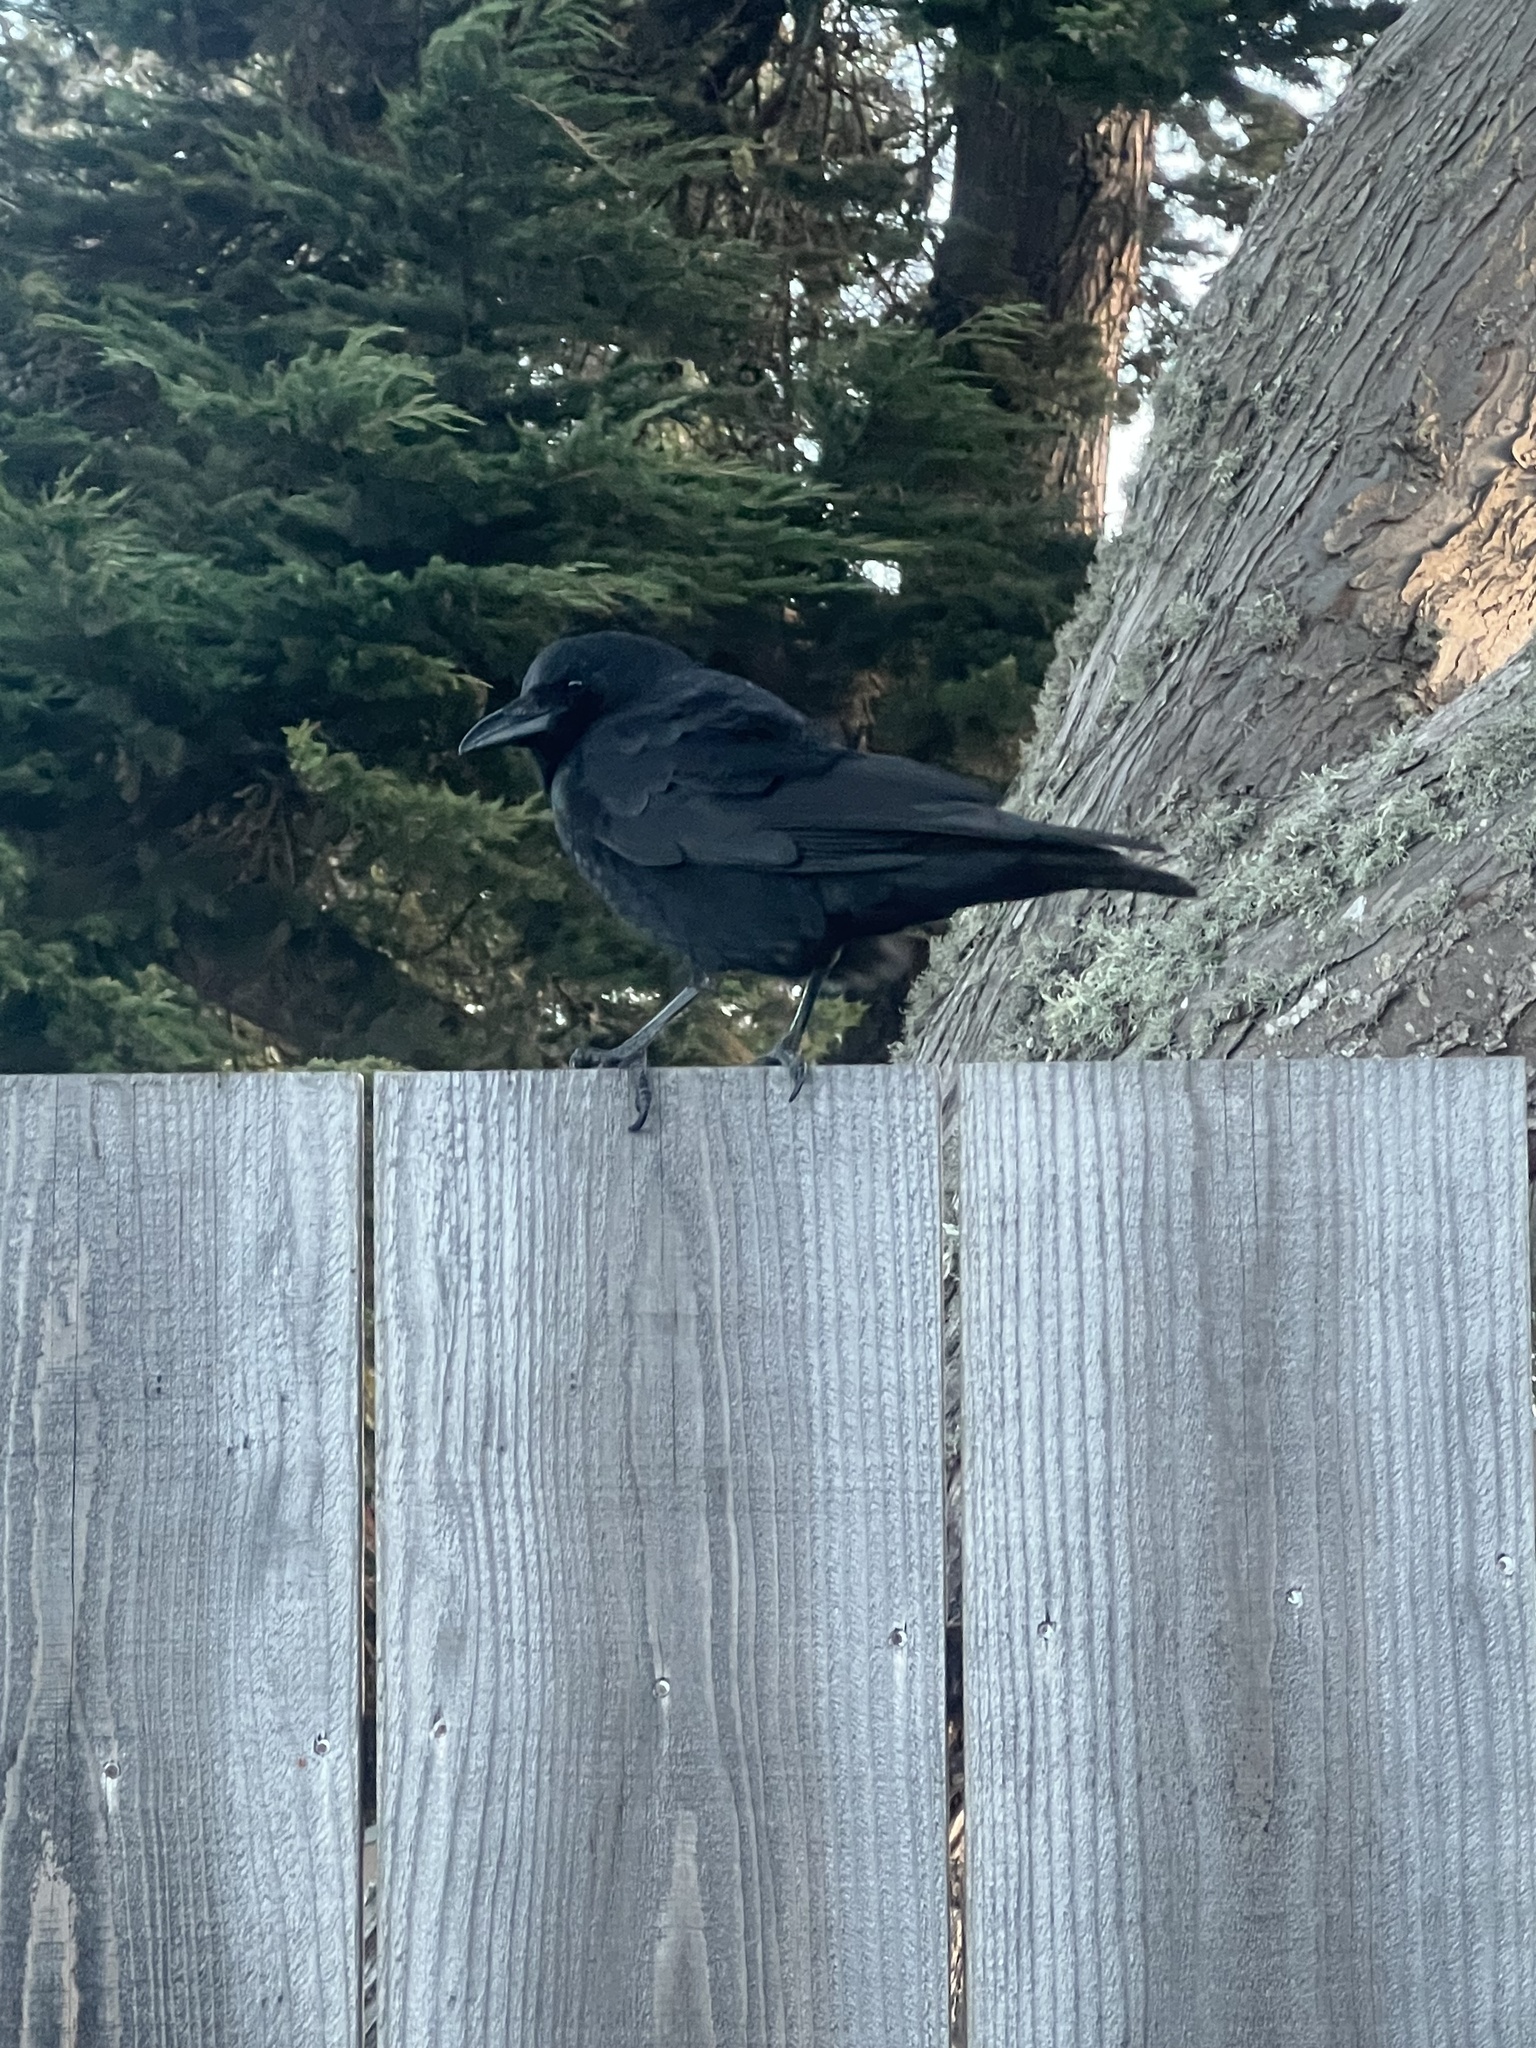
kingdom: Animalia
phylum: Chordata
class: Aves
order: Passeriformes
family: Corvidae
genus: Corvus
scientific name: Corvus brachyrhynchos
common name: American crow
